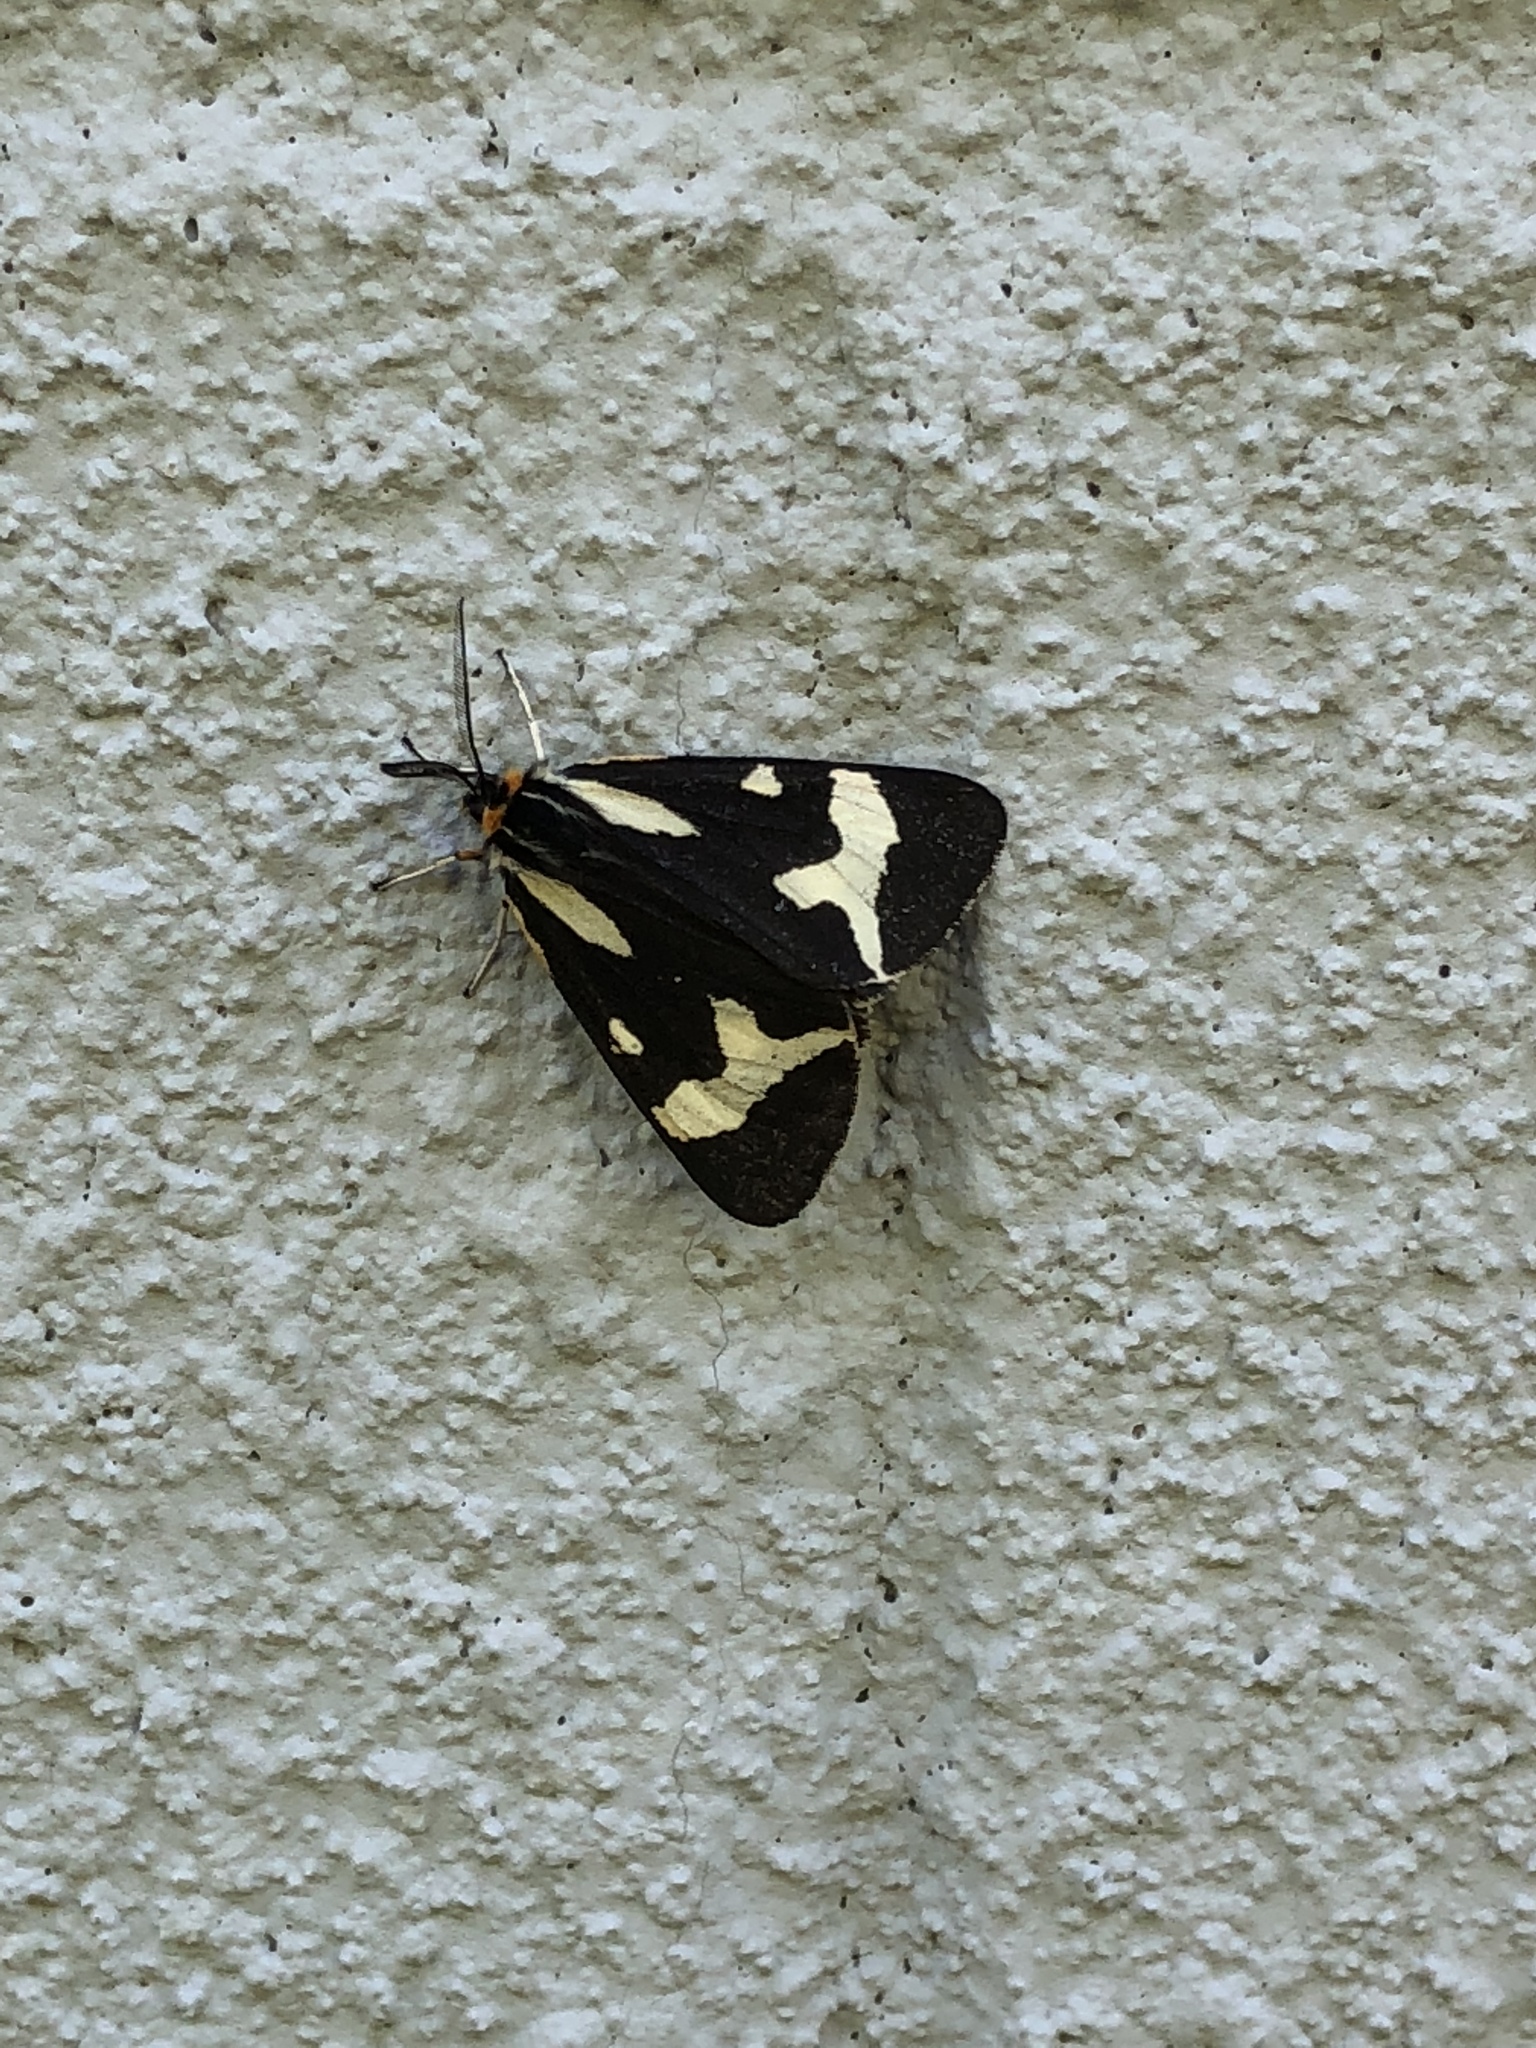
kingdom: Animalia
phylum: Arthropoda
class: Insecta
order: Lepidoptera
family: Erebidae
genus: Parasemia
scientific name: Parasemia plantaginis
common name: Wood tiger
